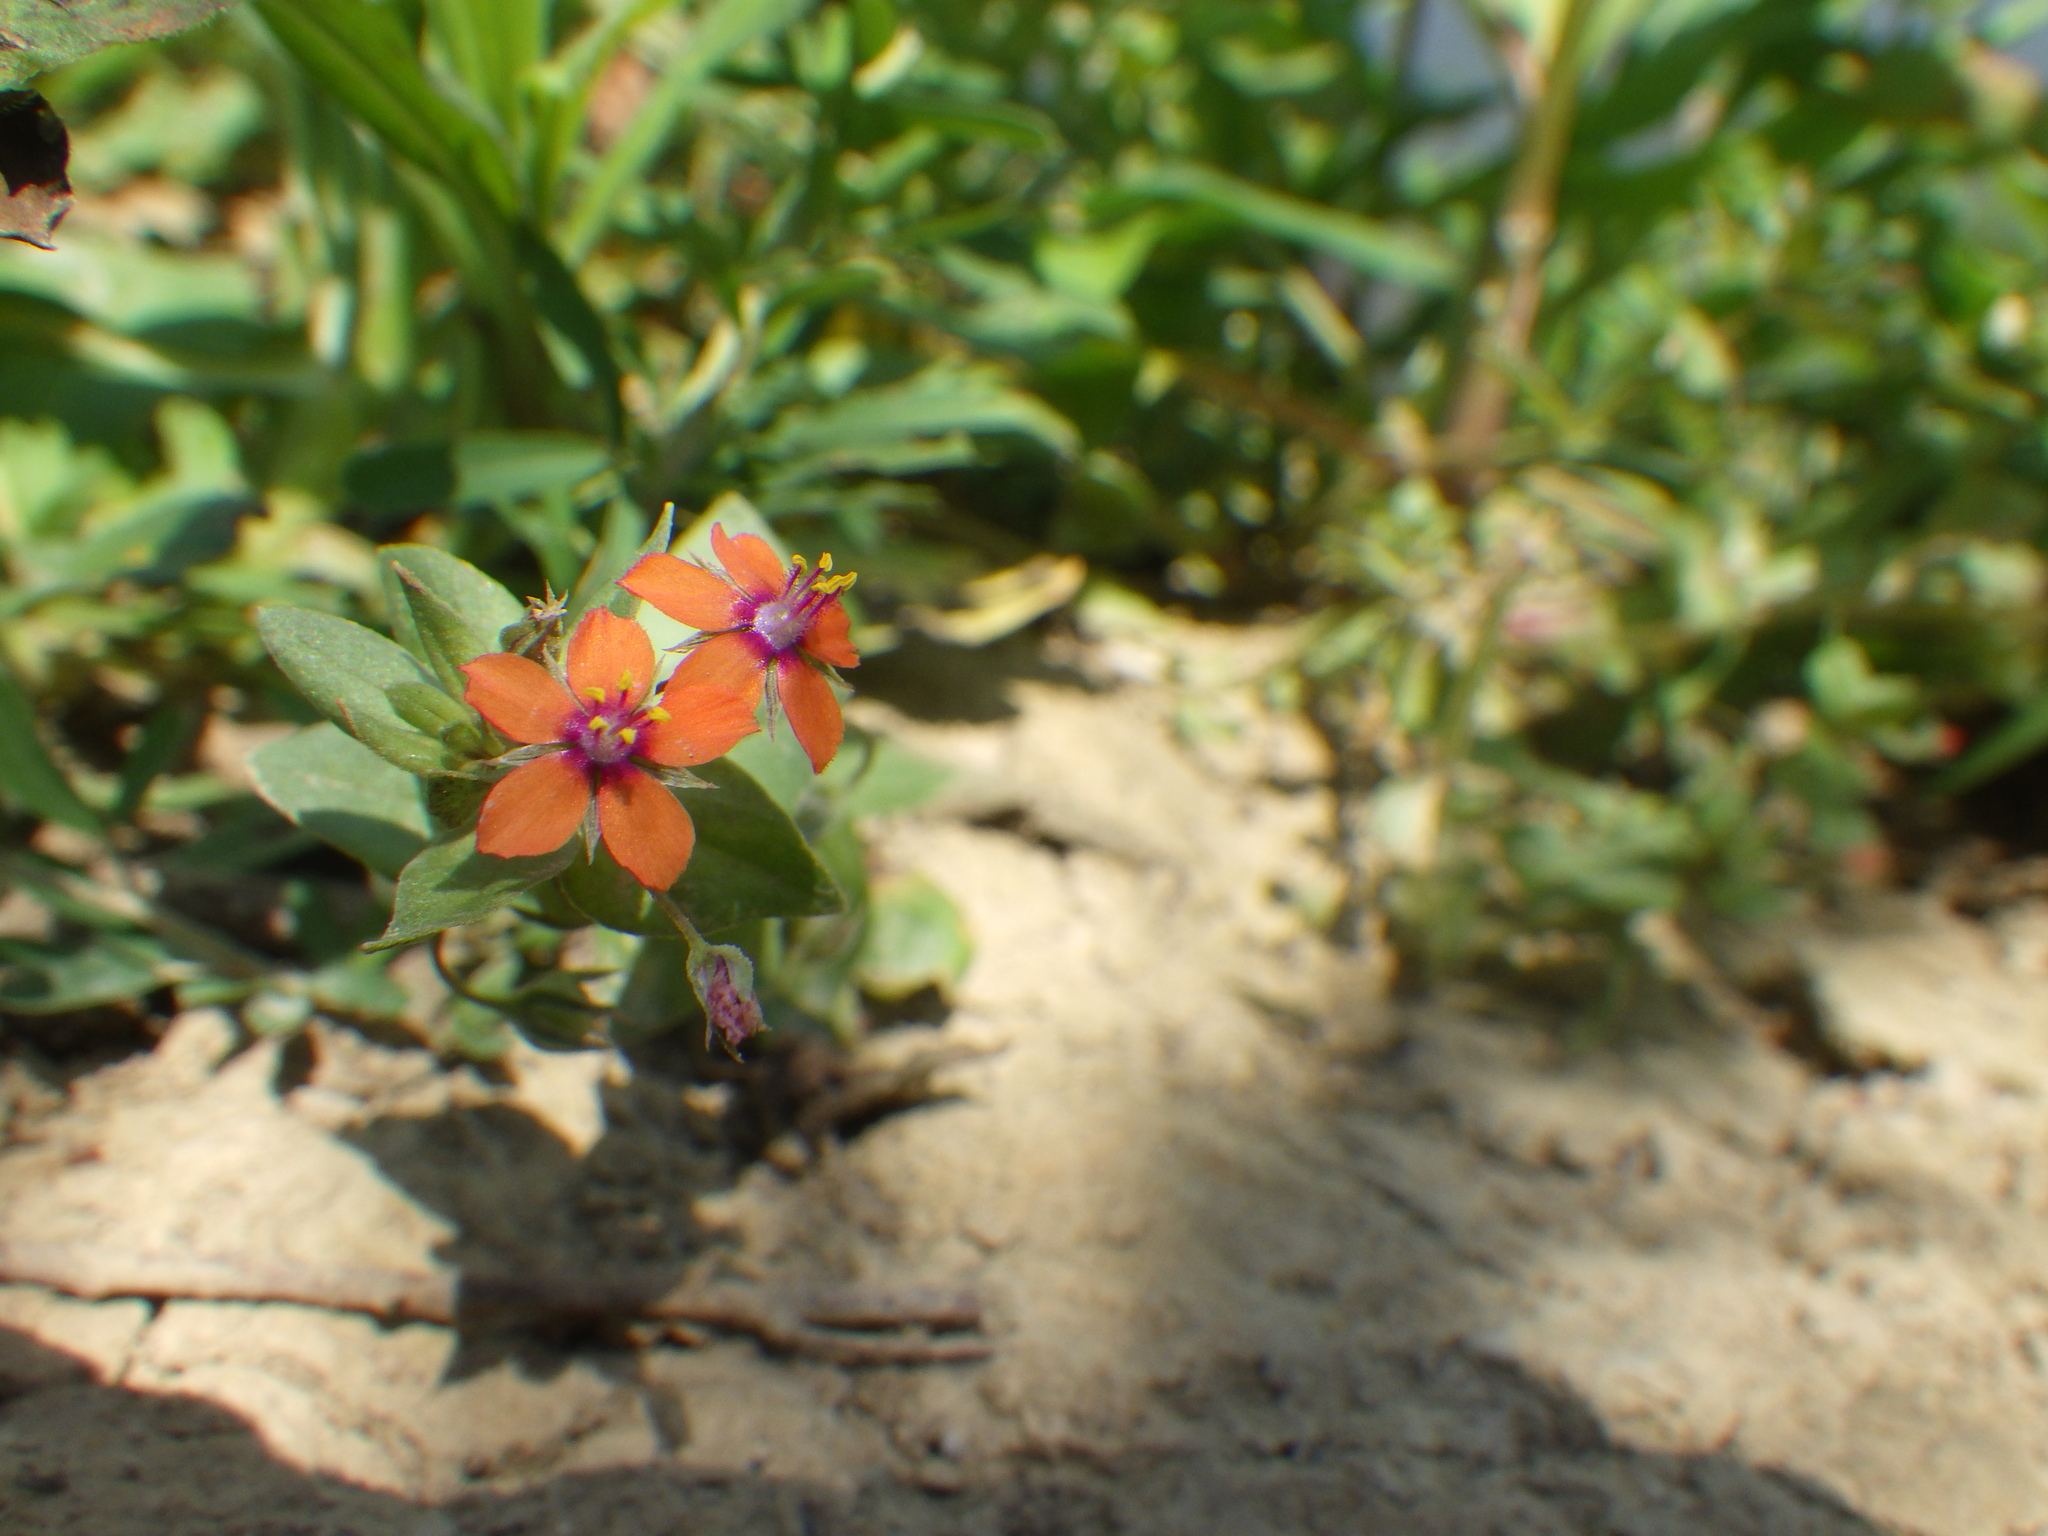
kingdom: Plantae
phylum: Tracheophyta
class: Magnoliopsida
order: Ericales
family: Primulaceae
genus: Lysimachia
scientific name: Lysimachia arvensis
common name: Scarlet pimpernel
